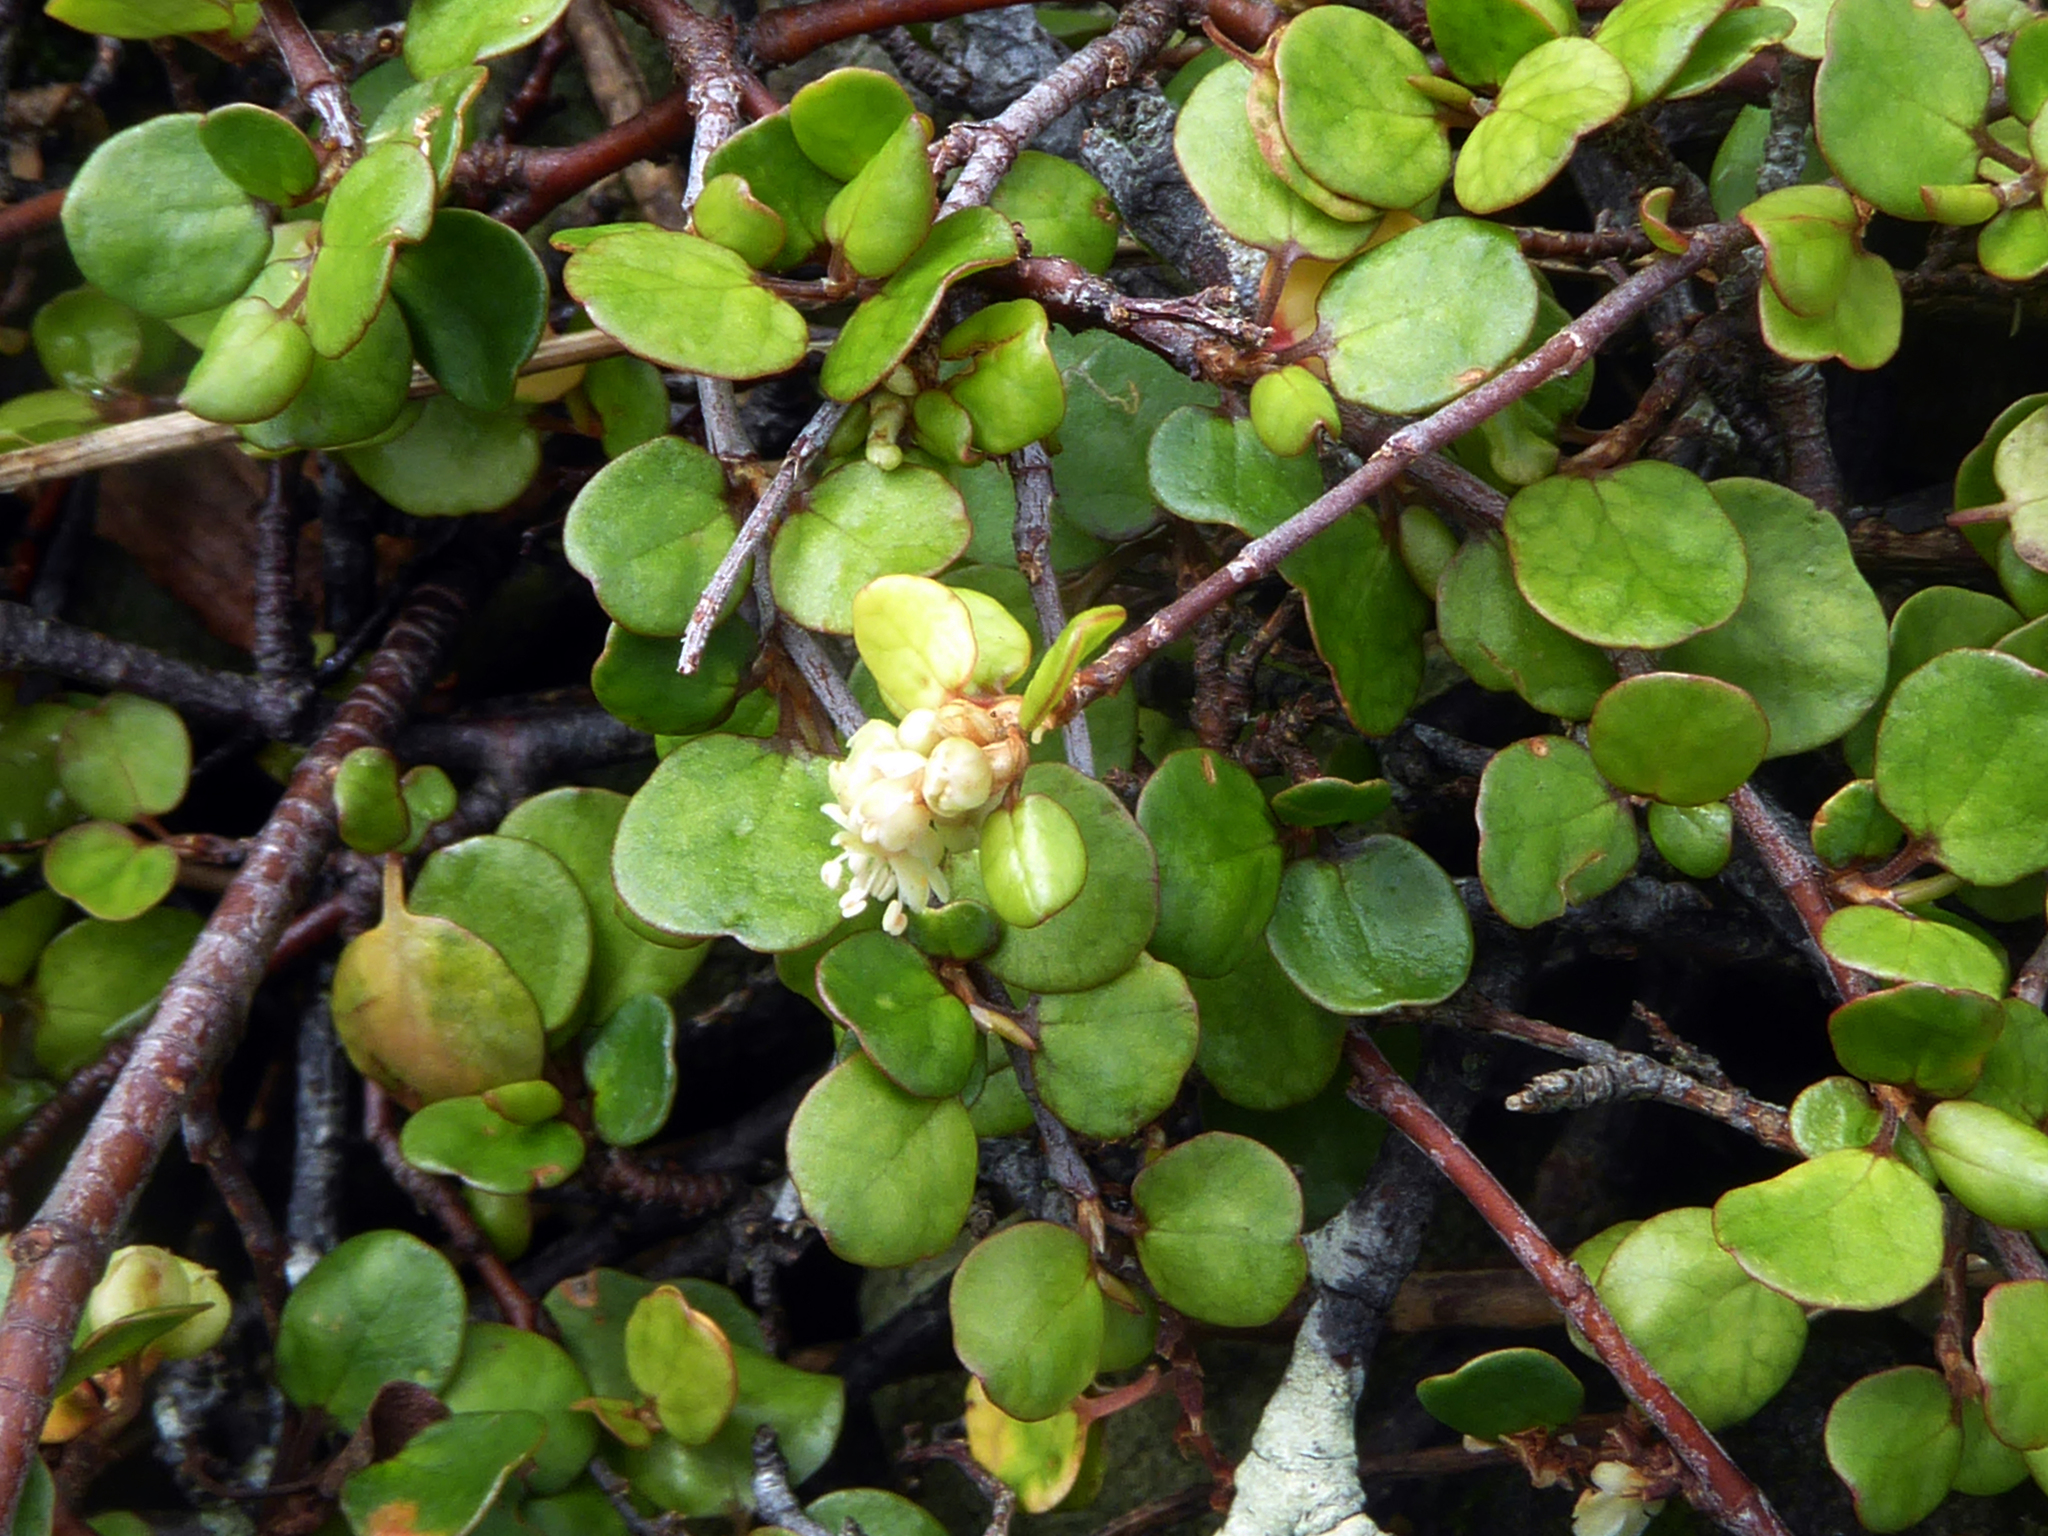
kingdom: Plantae
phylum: Tracheophyta
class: Magnoliopsida
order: Caryophyllales
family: Polygonaceae
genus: Muehlenbeckia
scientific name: Muehlenbeckia complexa
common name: Wireplant
